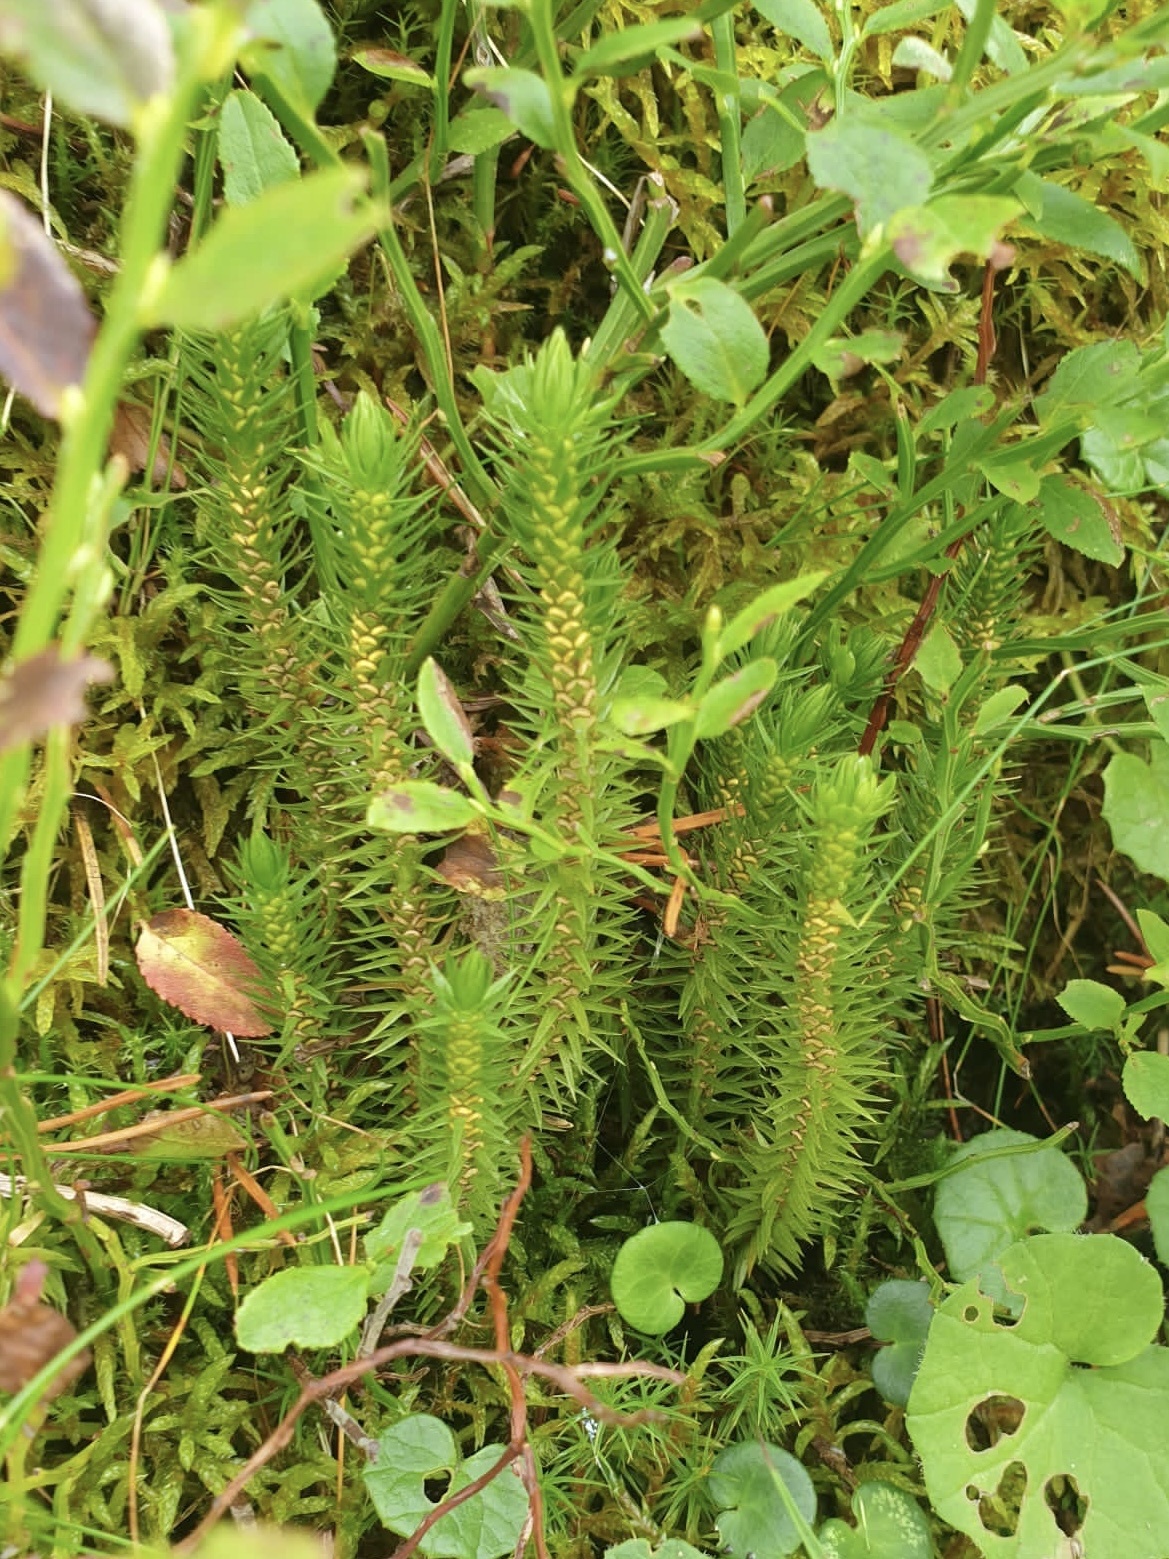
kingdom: Plantae
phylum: Tracheophyta
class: Lycopodiopsida
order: Lycopodiales
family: Lycopodiaceae
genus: Huperzia
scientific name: Huperzia selago
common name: Northern firmoss
